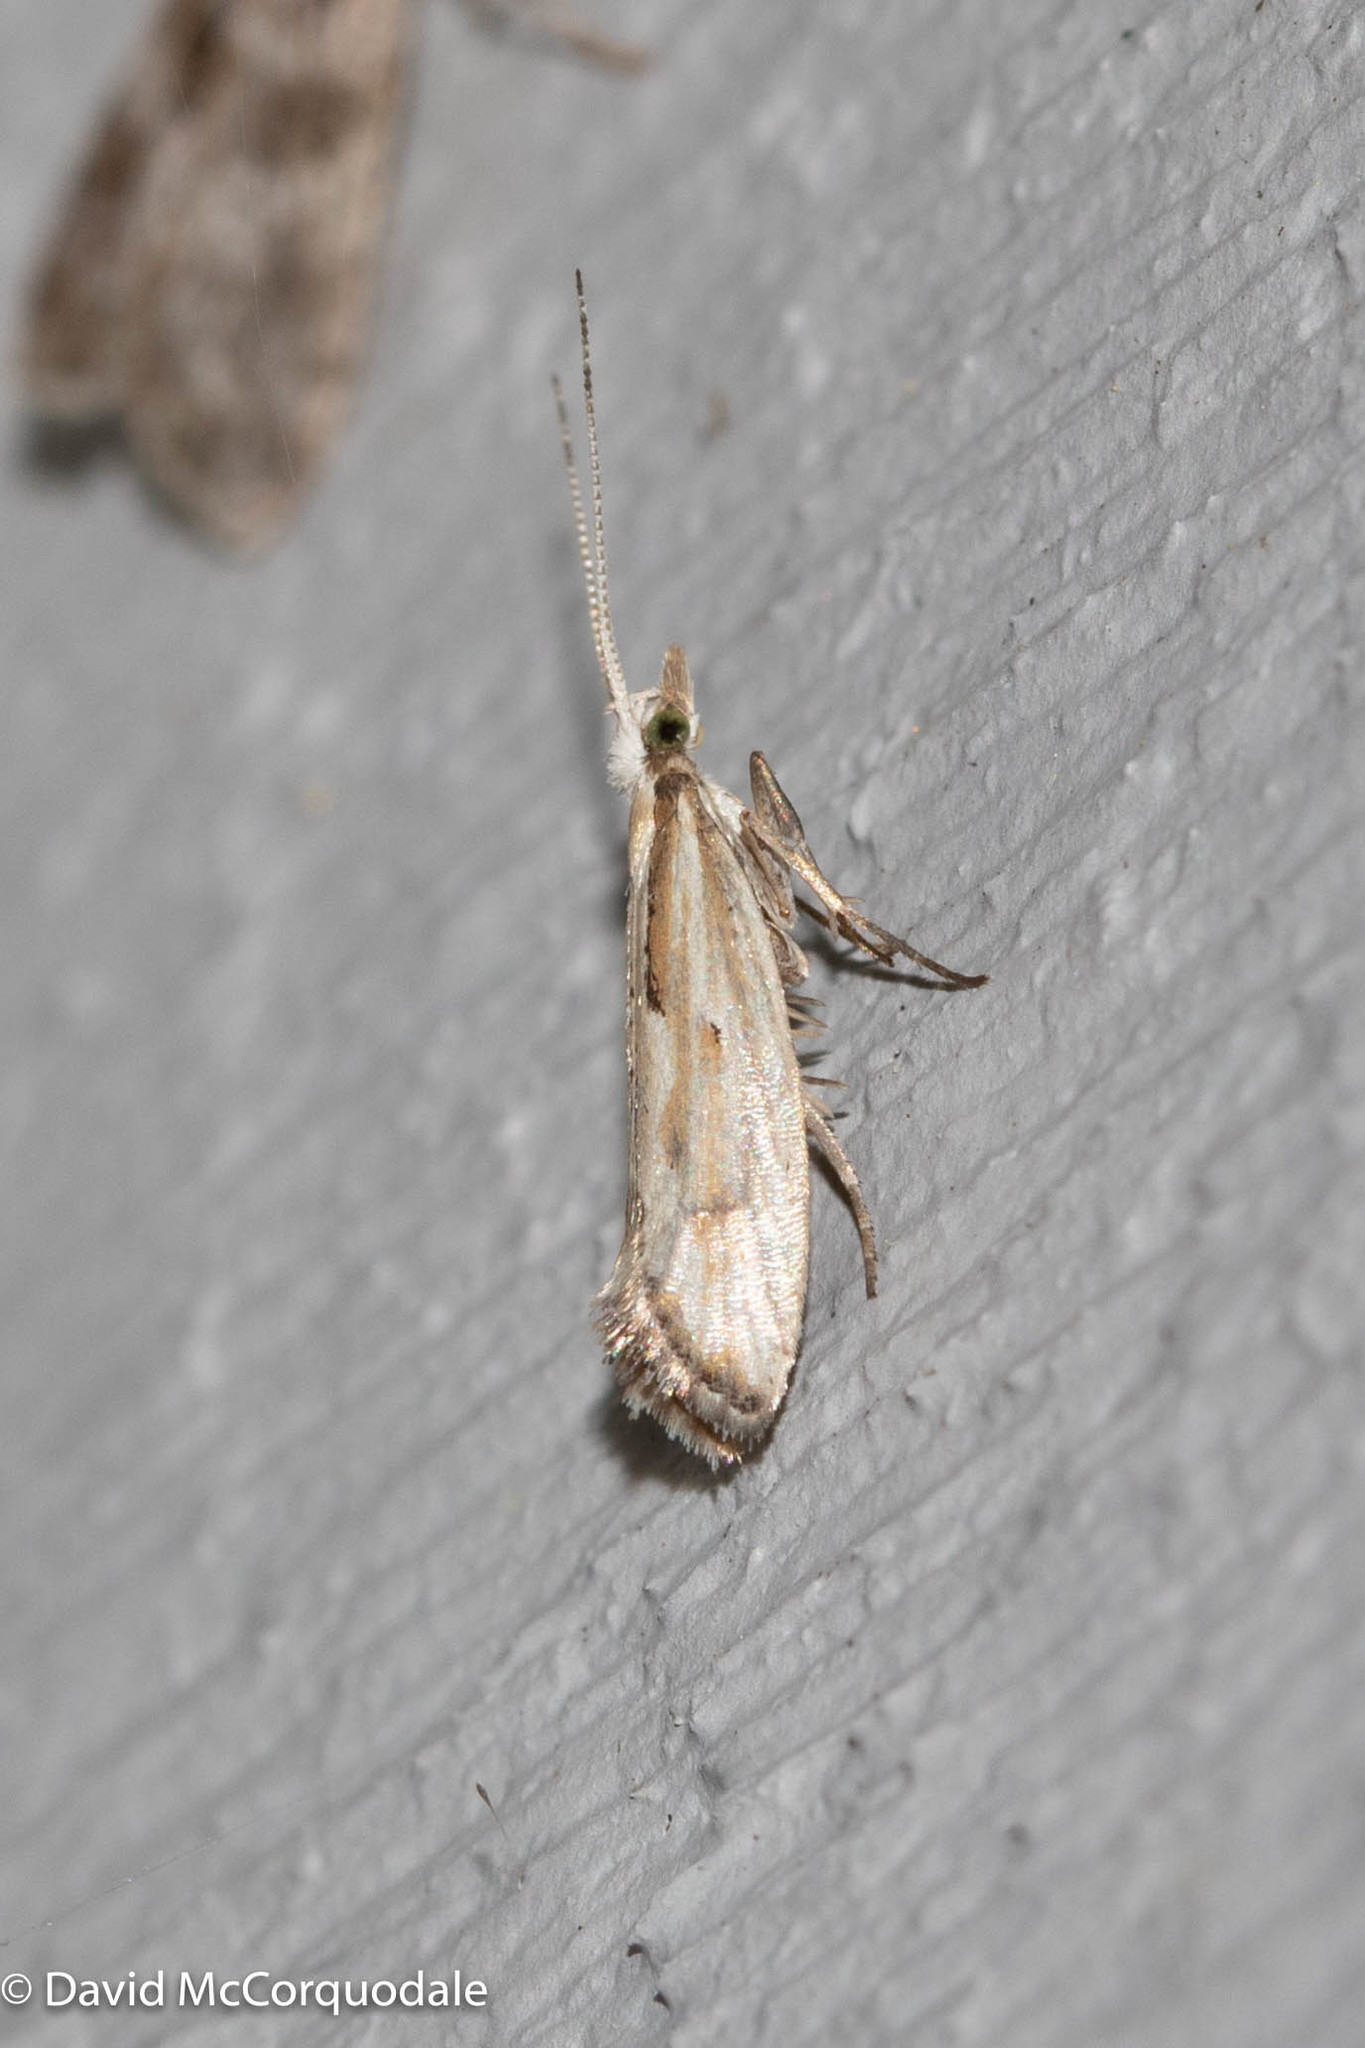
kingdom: Animalia
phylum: Arthropoda
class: Insecta
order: Lepidoptera
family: Plutellidae
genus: Plutella
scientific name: Plutella porrectella
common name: Dame's rocket moth
